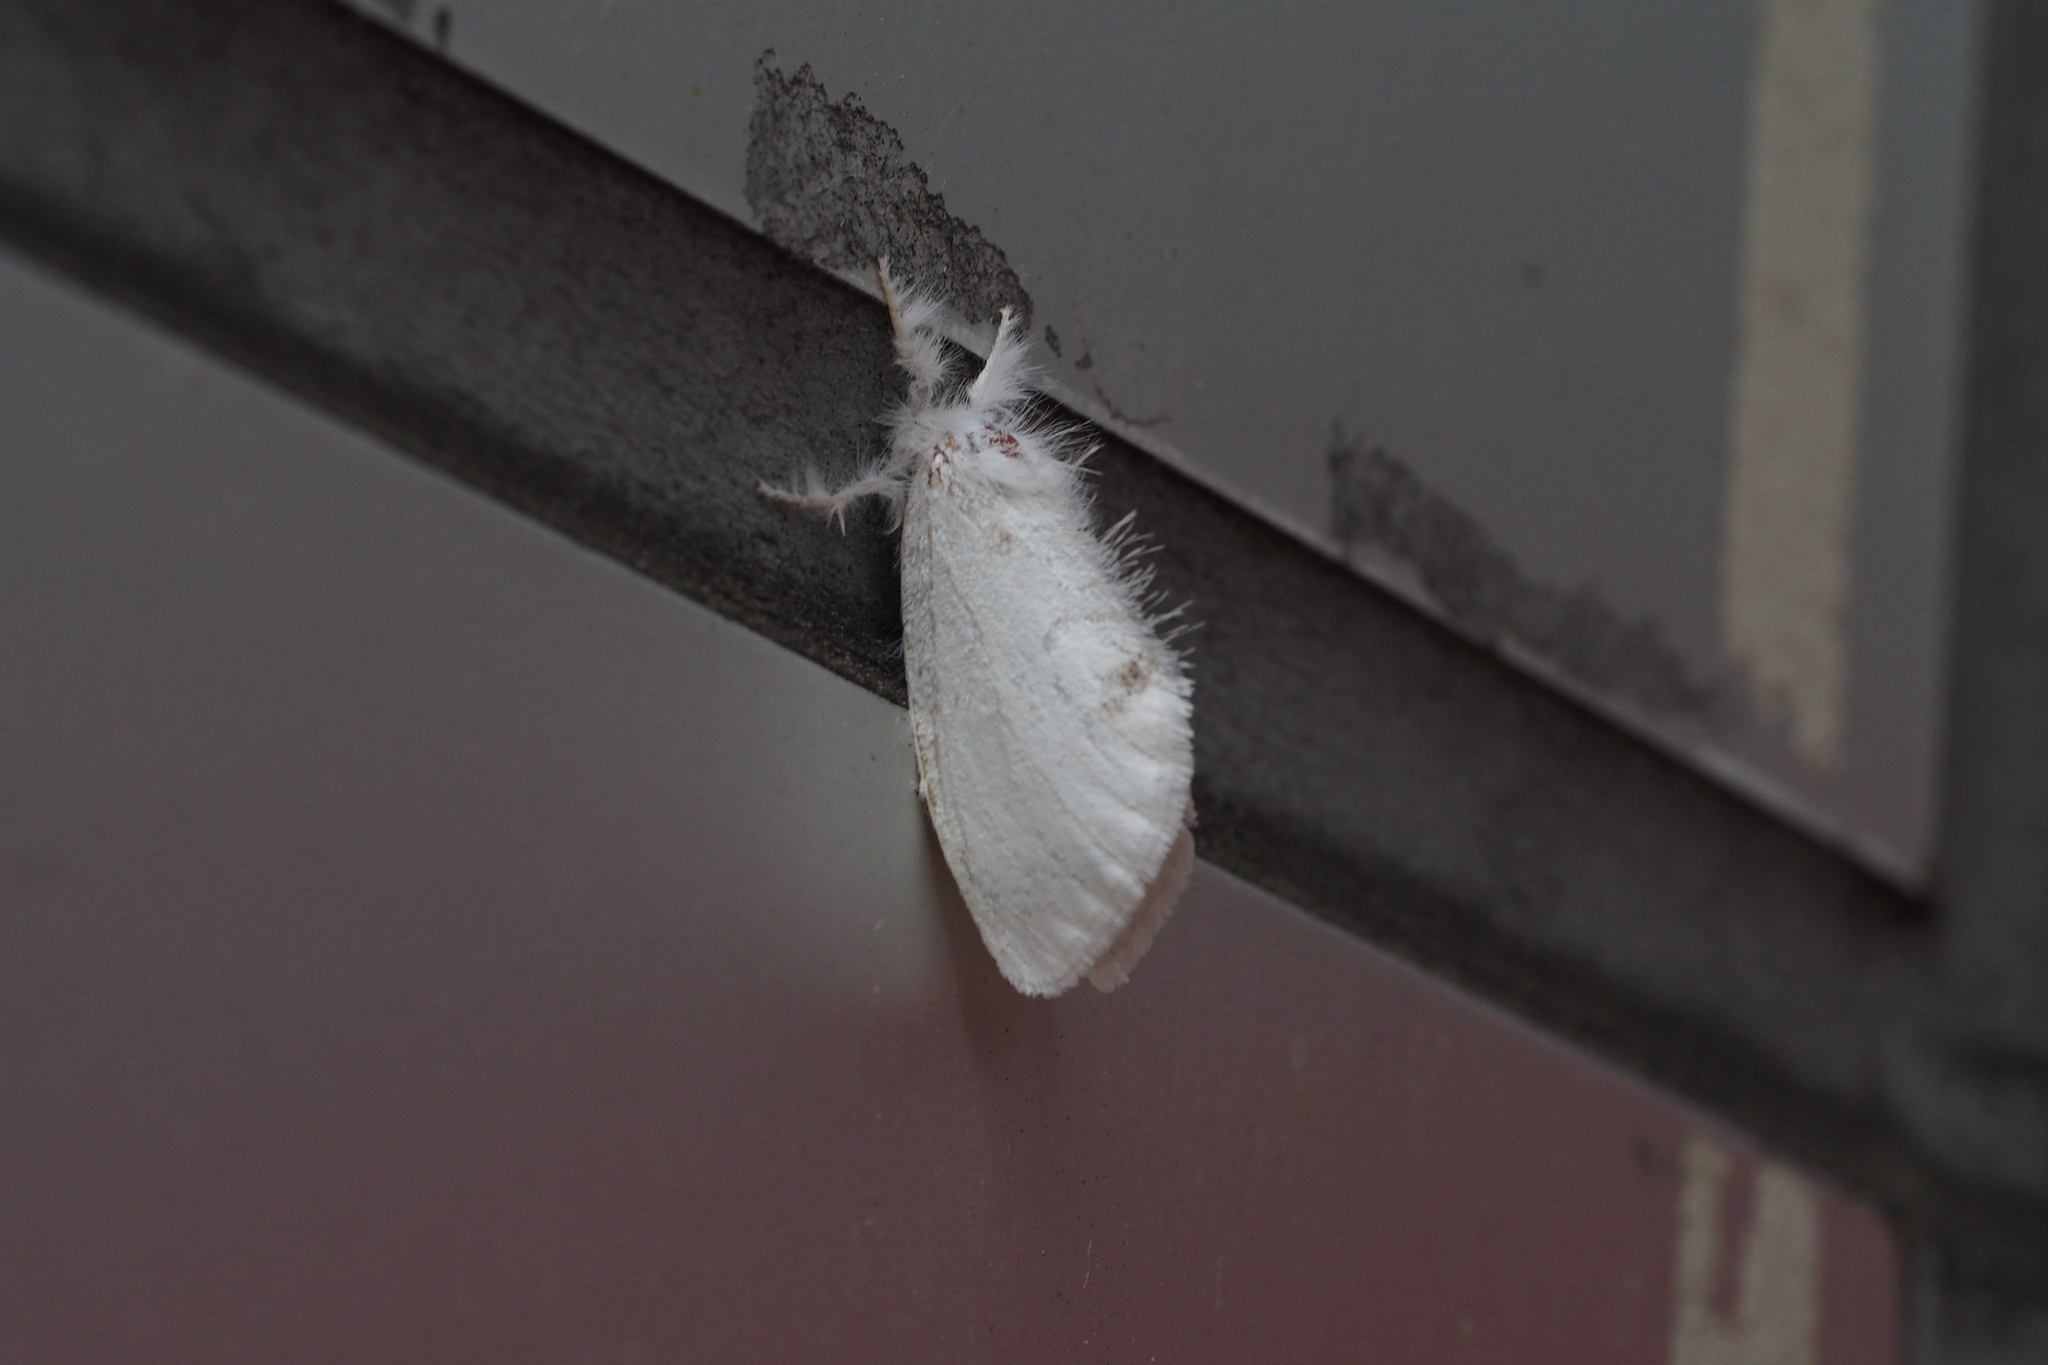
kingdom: Animalia
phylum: Arthropoda
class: Insecta
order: Lepidoptera
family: Erebidae
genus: Sphrageidus
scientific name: Sphrageidus similis
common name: Yellow-tail
